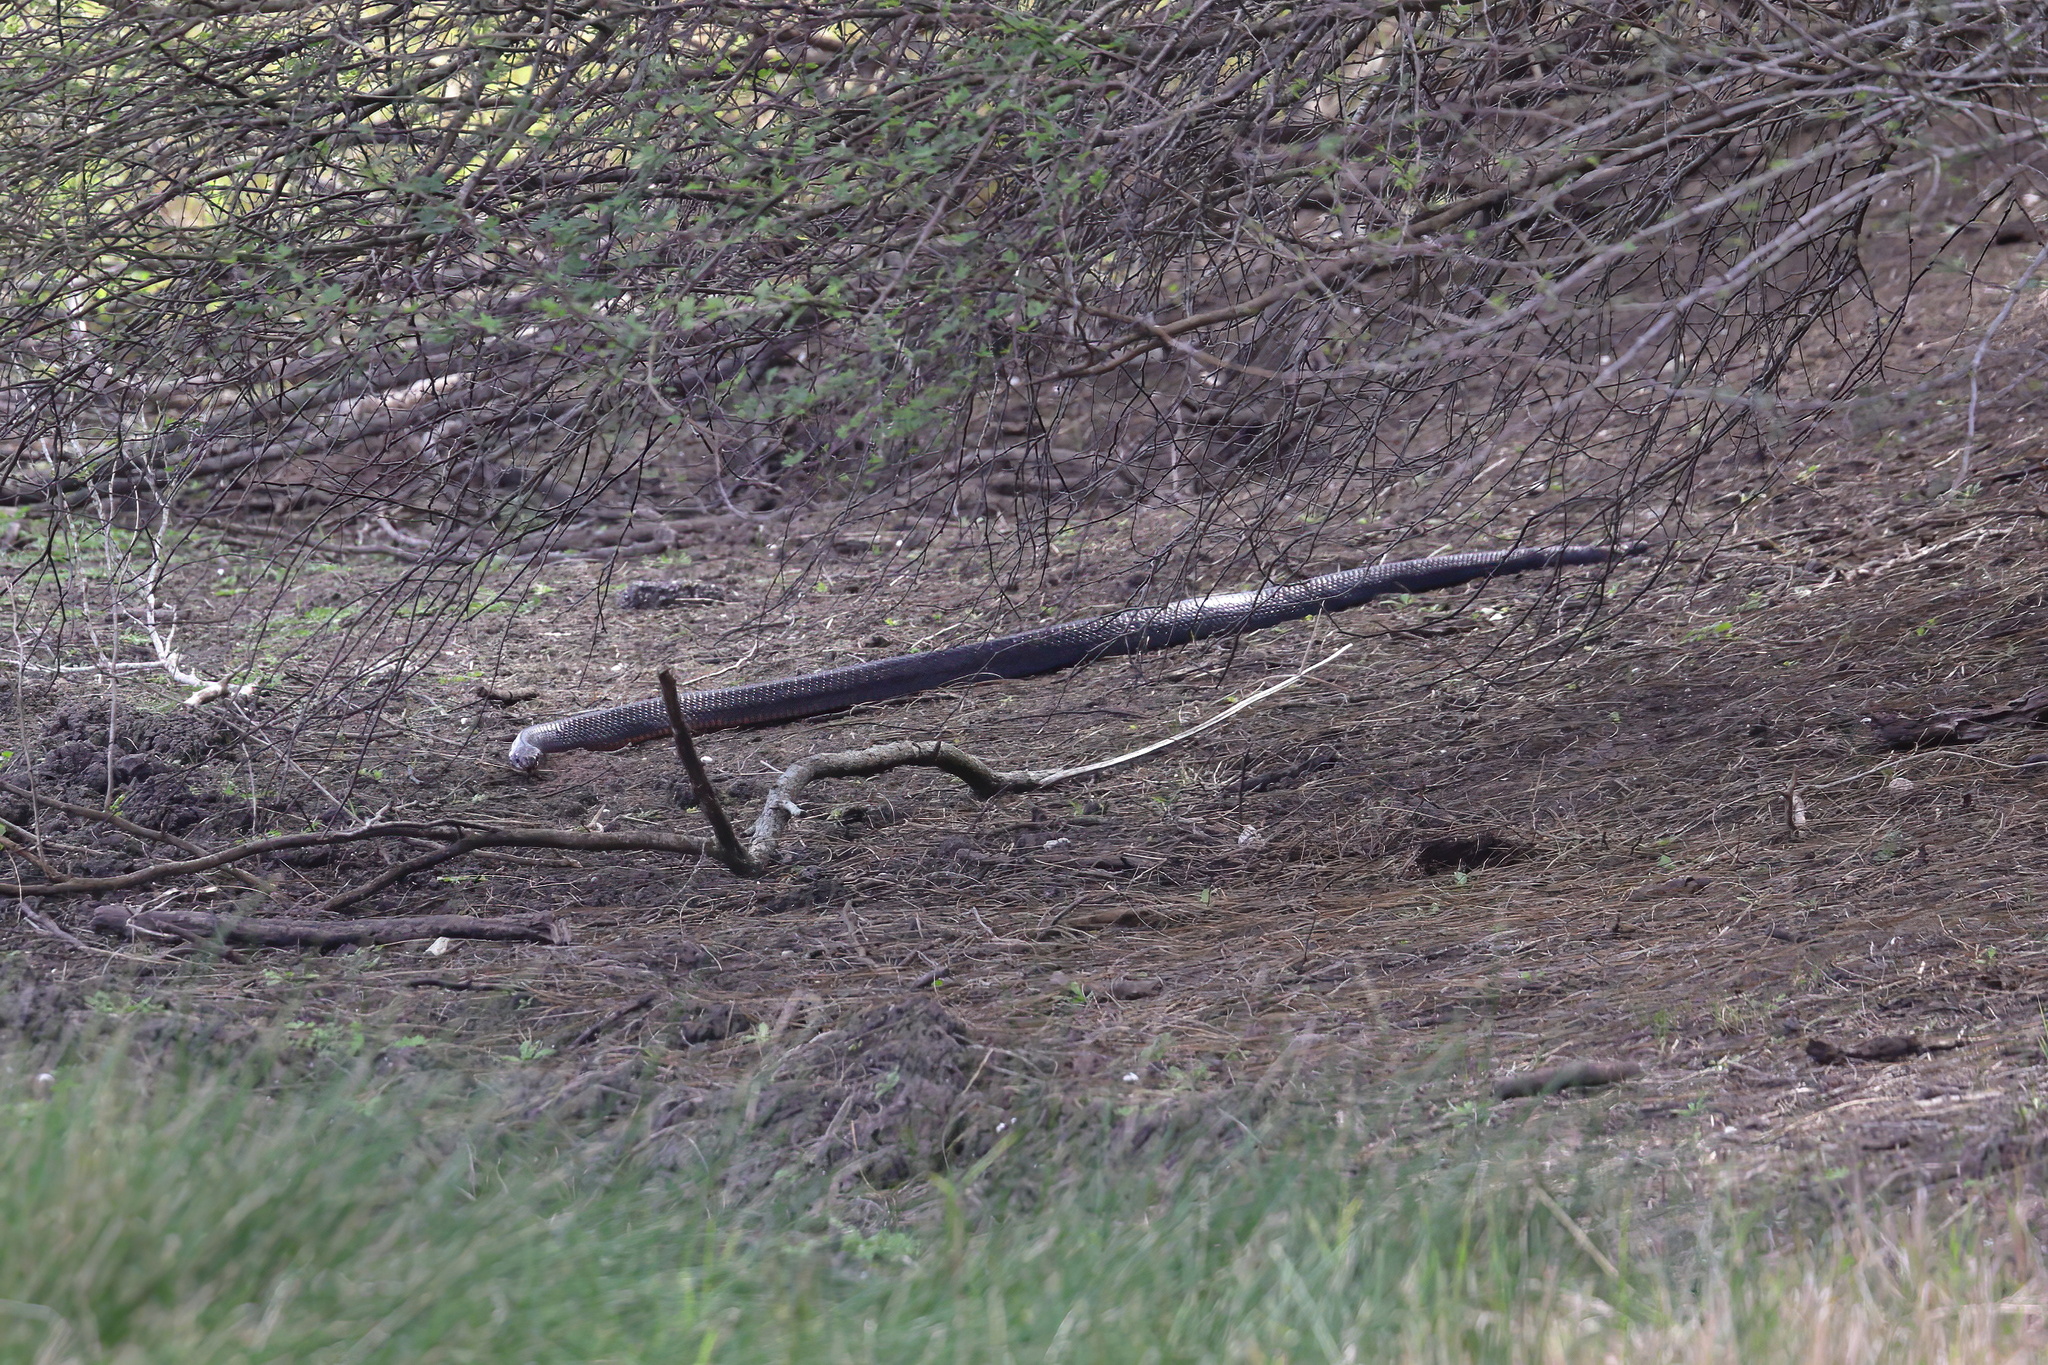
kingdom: Animalia
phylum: Chordata
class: Squamata
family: Colubridae
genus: Drymarchon
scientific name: Drymarchon melanurus
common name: Central american indigo snake
